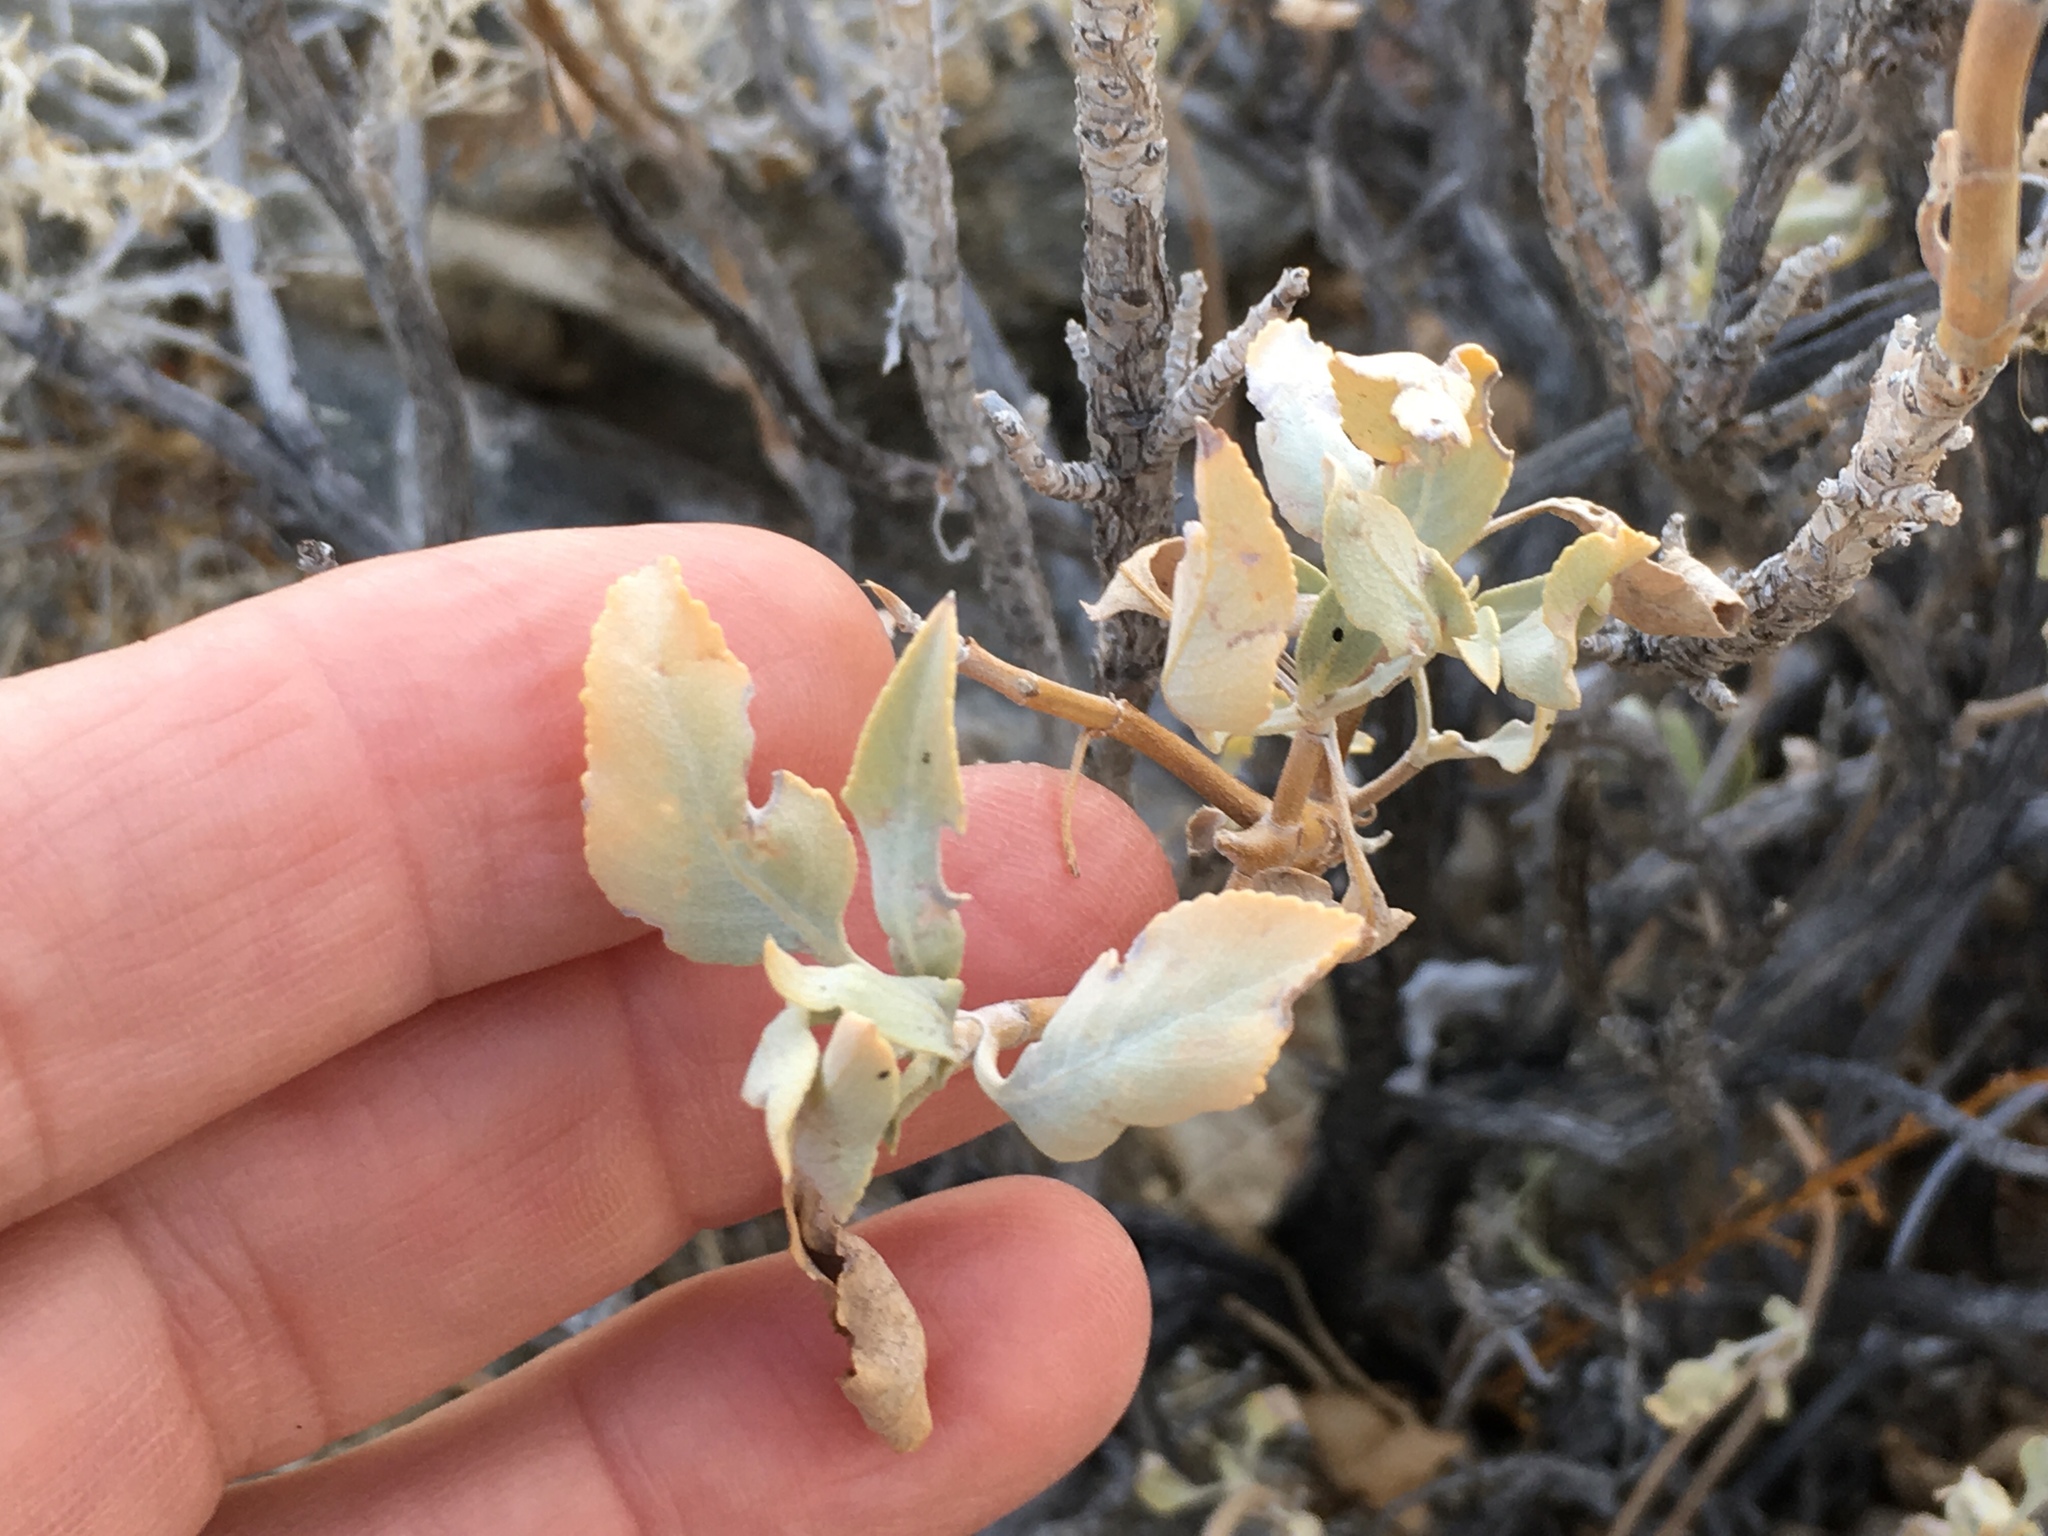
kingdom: Plantae
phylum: Tracheophyta
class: Magnoliopsida
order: Lamiales
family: Lamiaceae
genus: Salvia
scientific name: Salvia vaseyi
